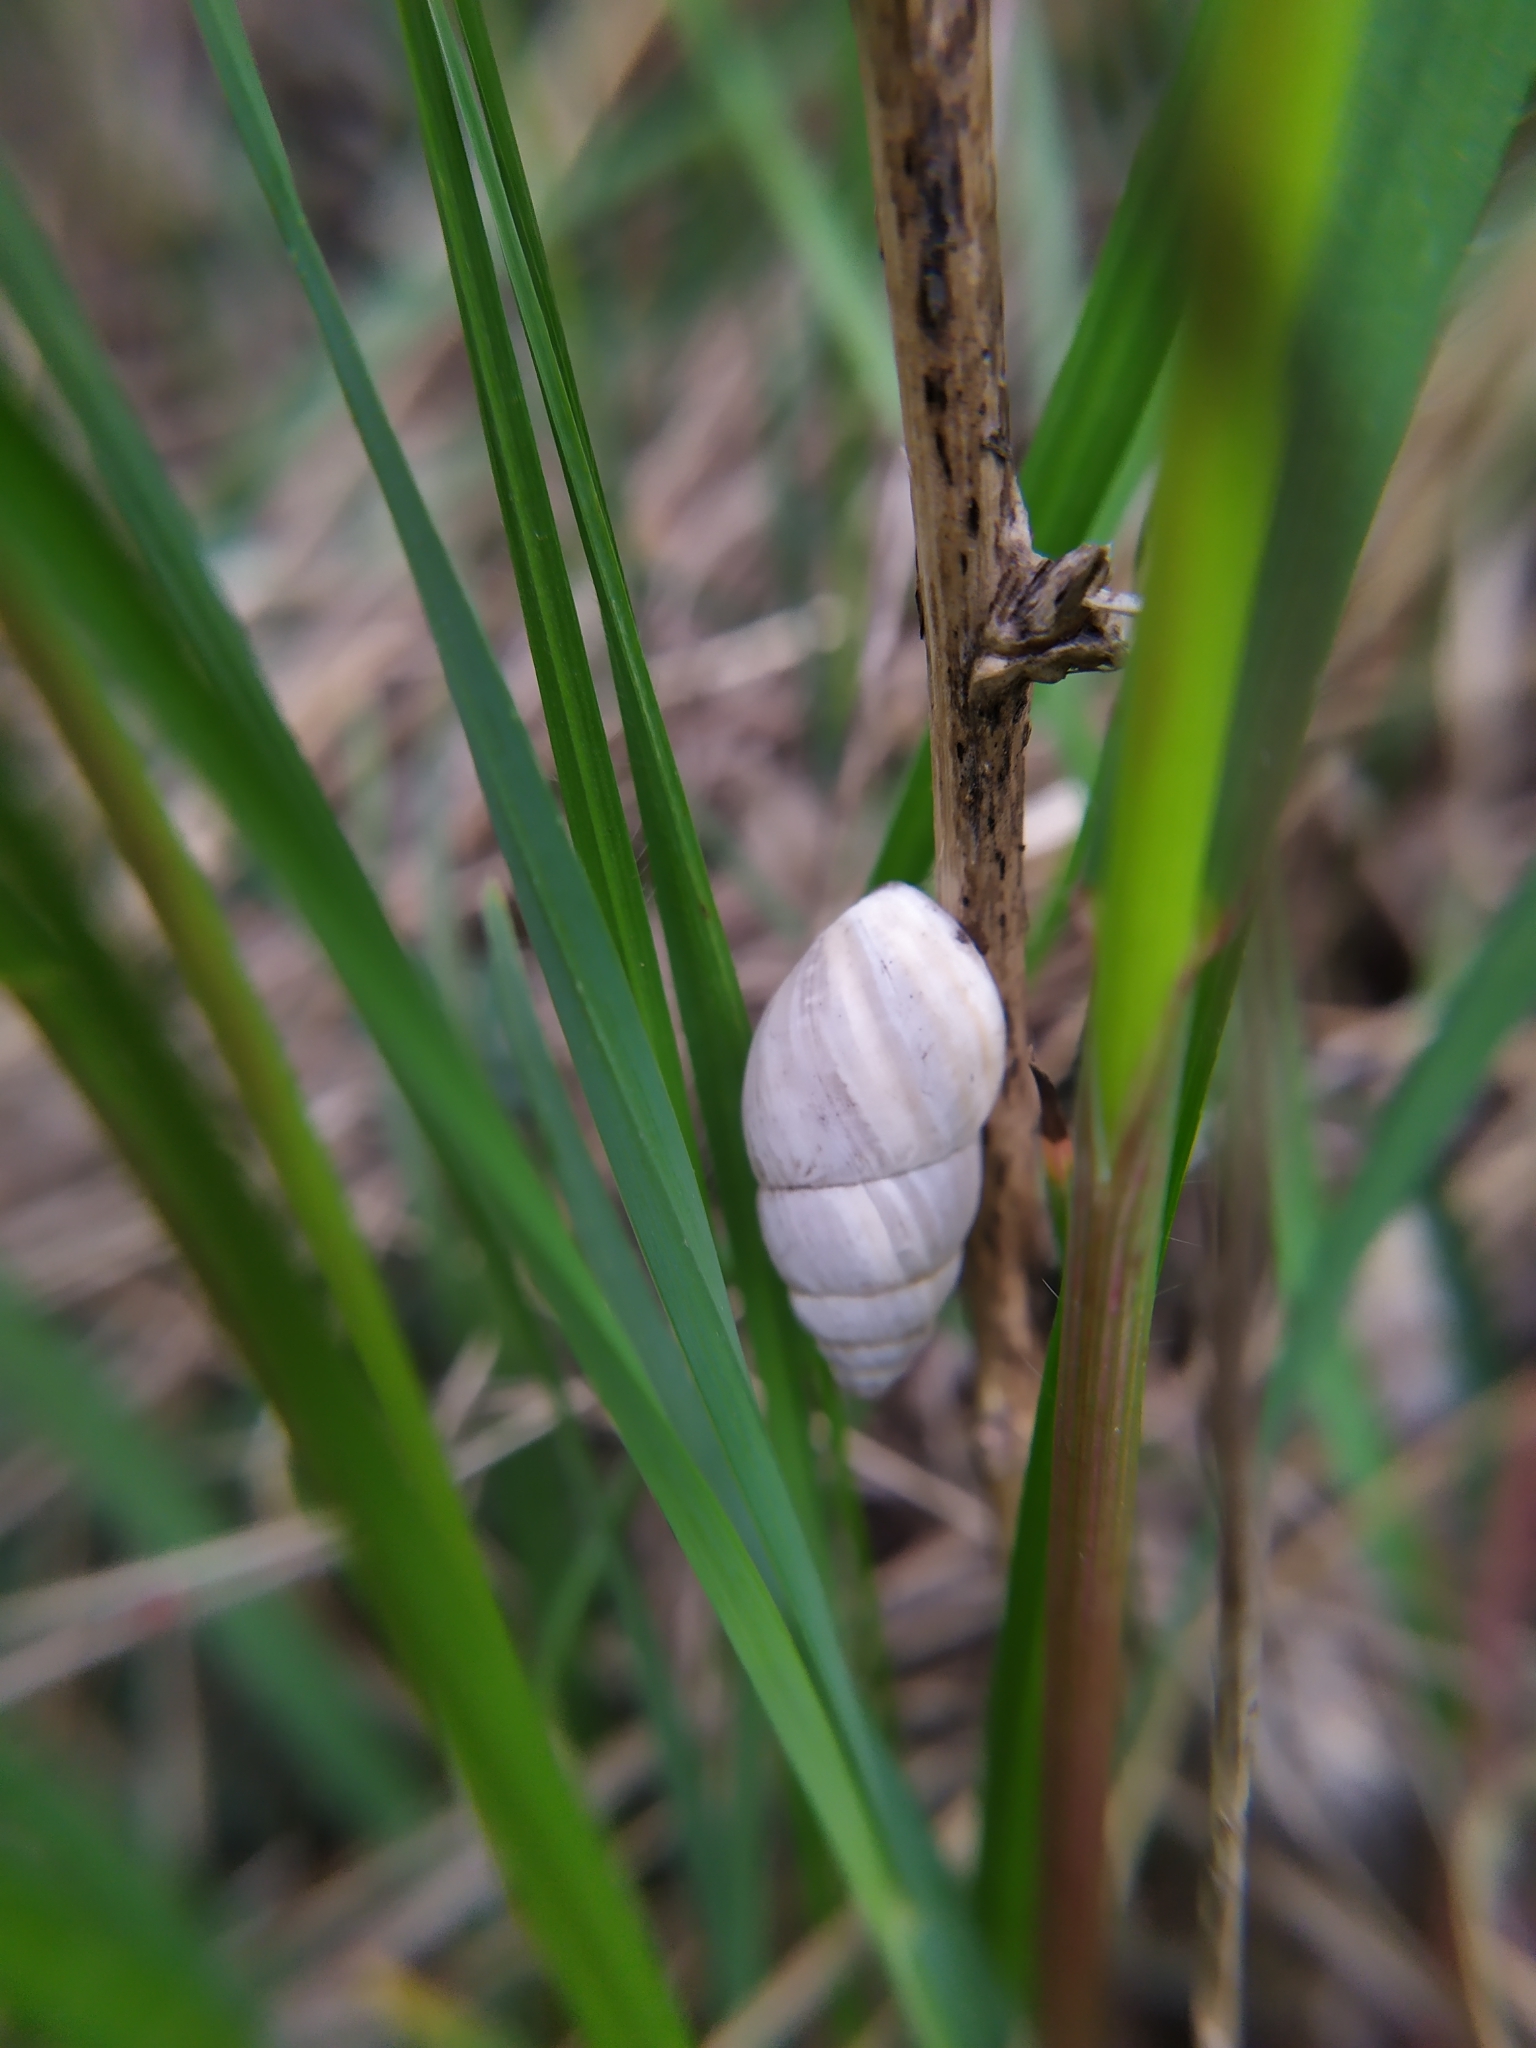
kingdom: Animalia
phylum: Mollusca
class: Gastropoda
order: Stylommatophora
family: Enidae
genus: Zebrina
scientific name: Zebrina detrita
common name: Large bulin
